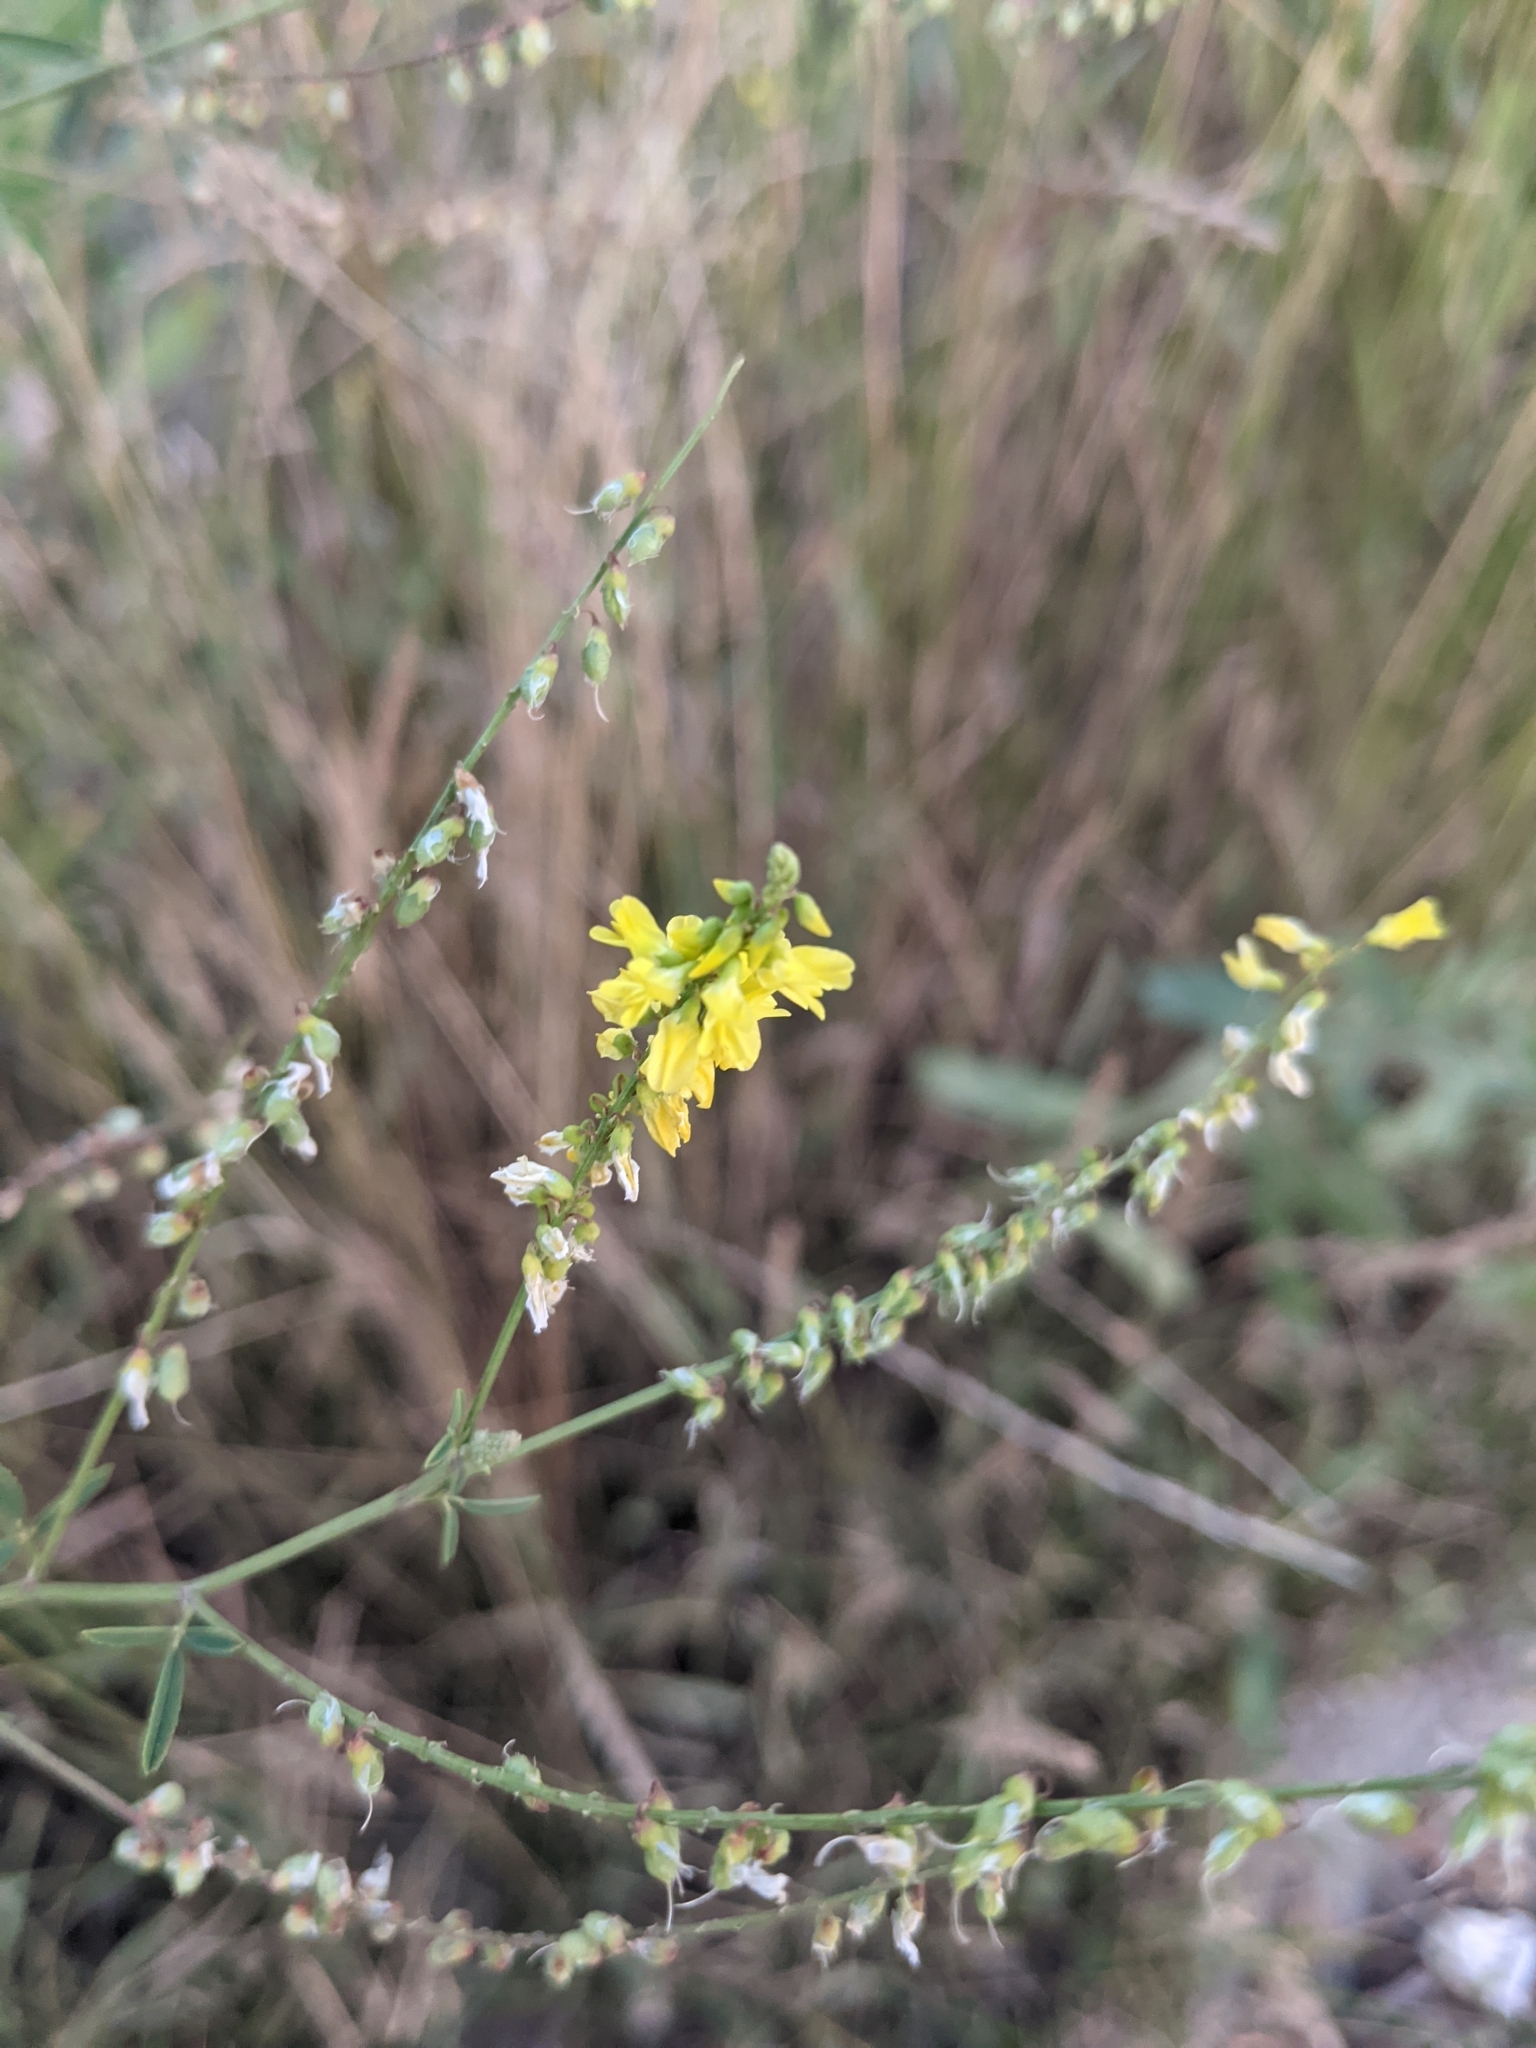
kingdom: Plantae
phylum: Tracheophyta
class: Magnoliopsida
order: Fabales
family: Fabaceae
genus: Melilotus
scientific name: Melilotus officinalis
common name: Sweetclover
